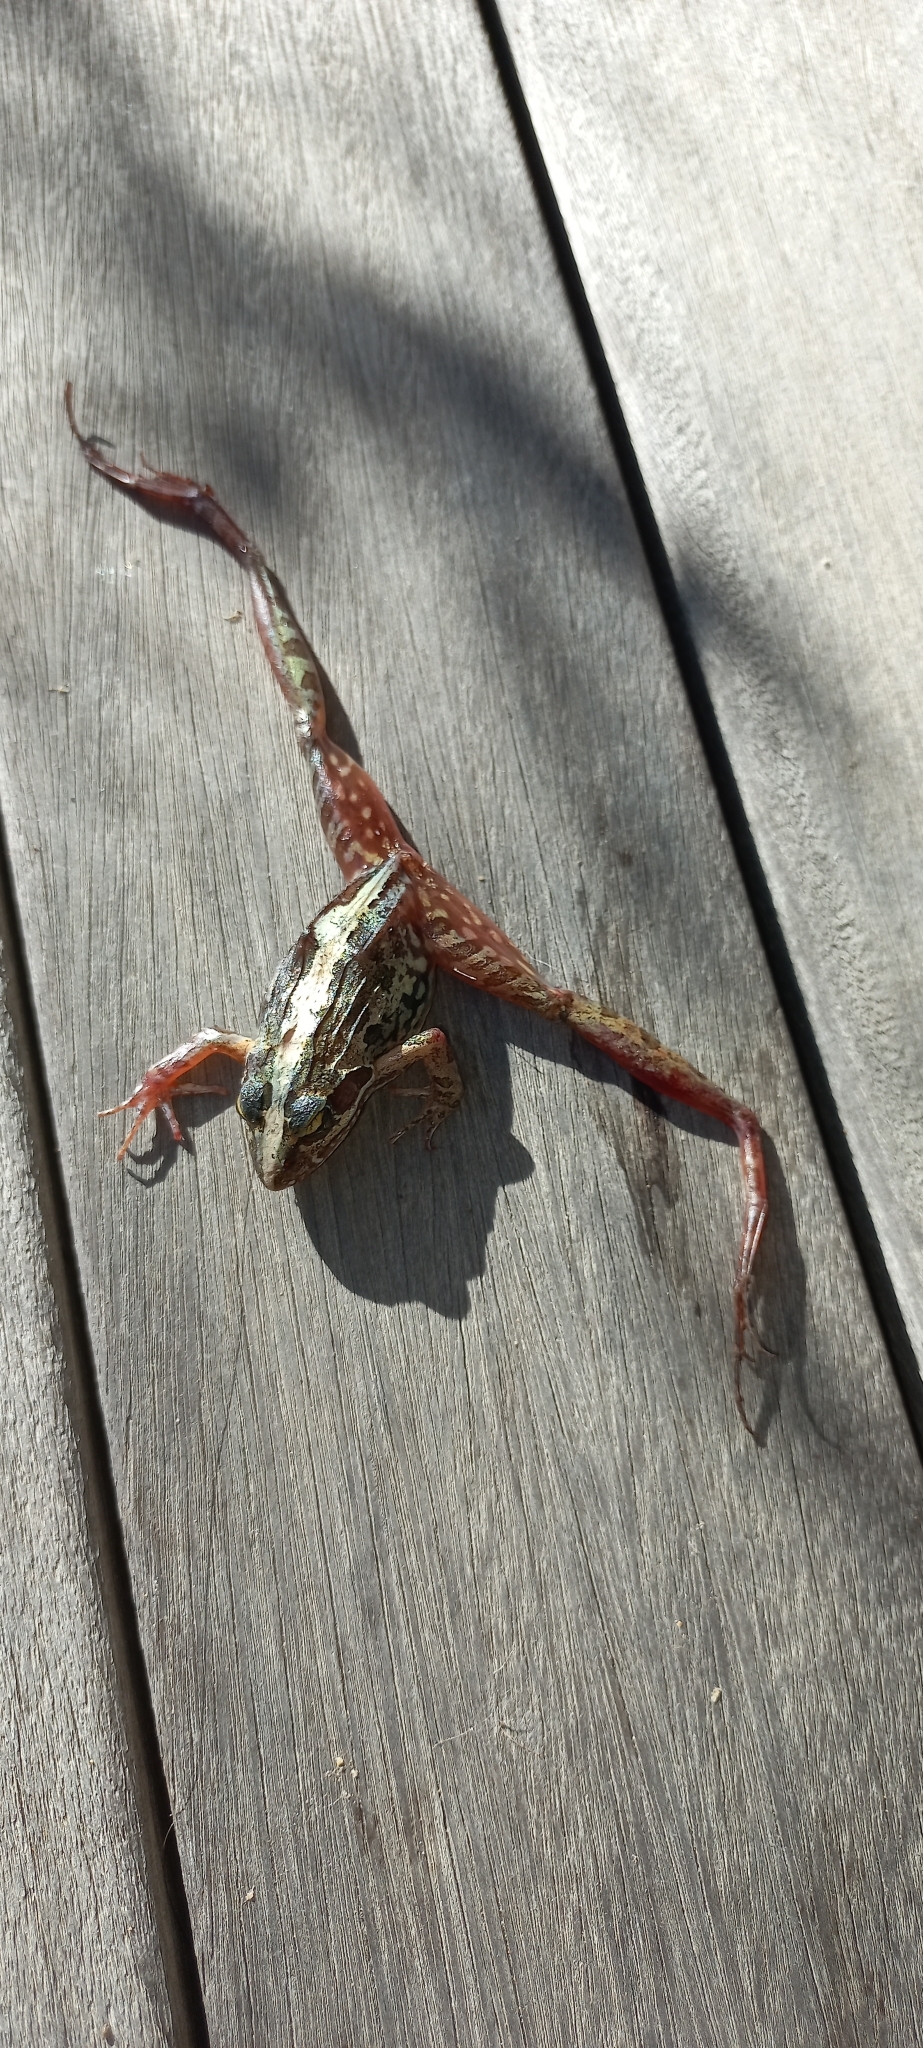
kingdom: Animalia
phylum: Chordata
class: Amphibia
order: Anura
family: Pyxicephalidae
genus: Strongylopus
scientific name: Strongylopus grayii
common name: Gray's stream frog
